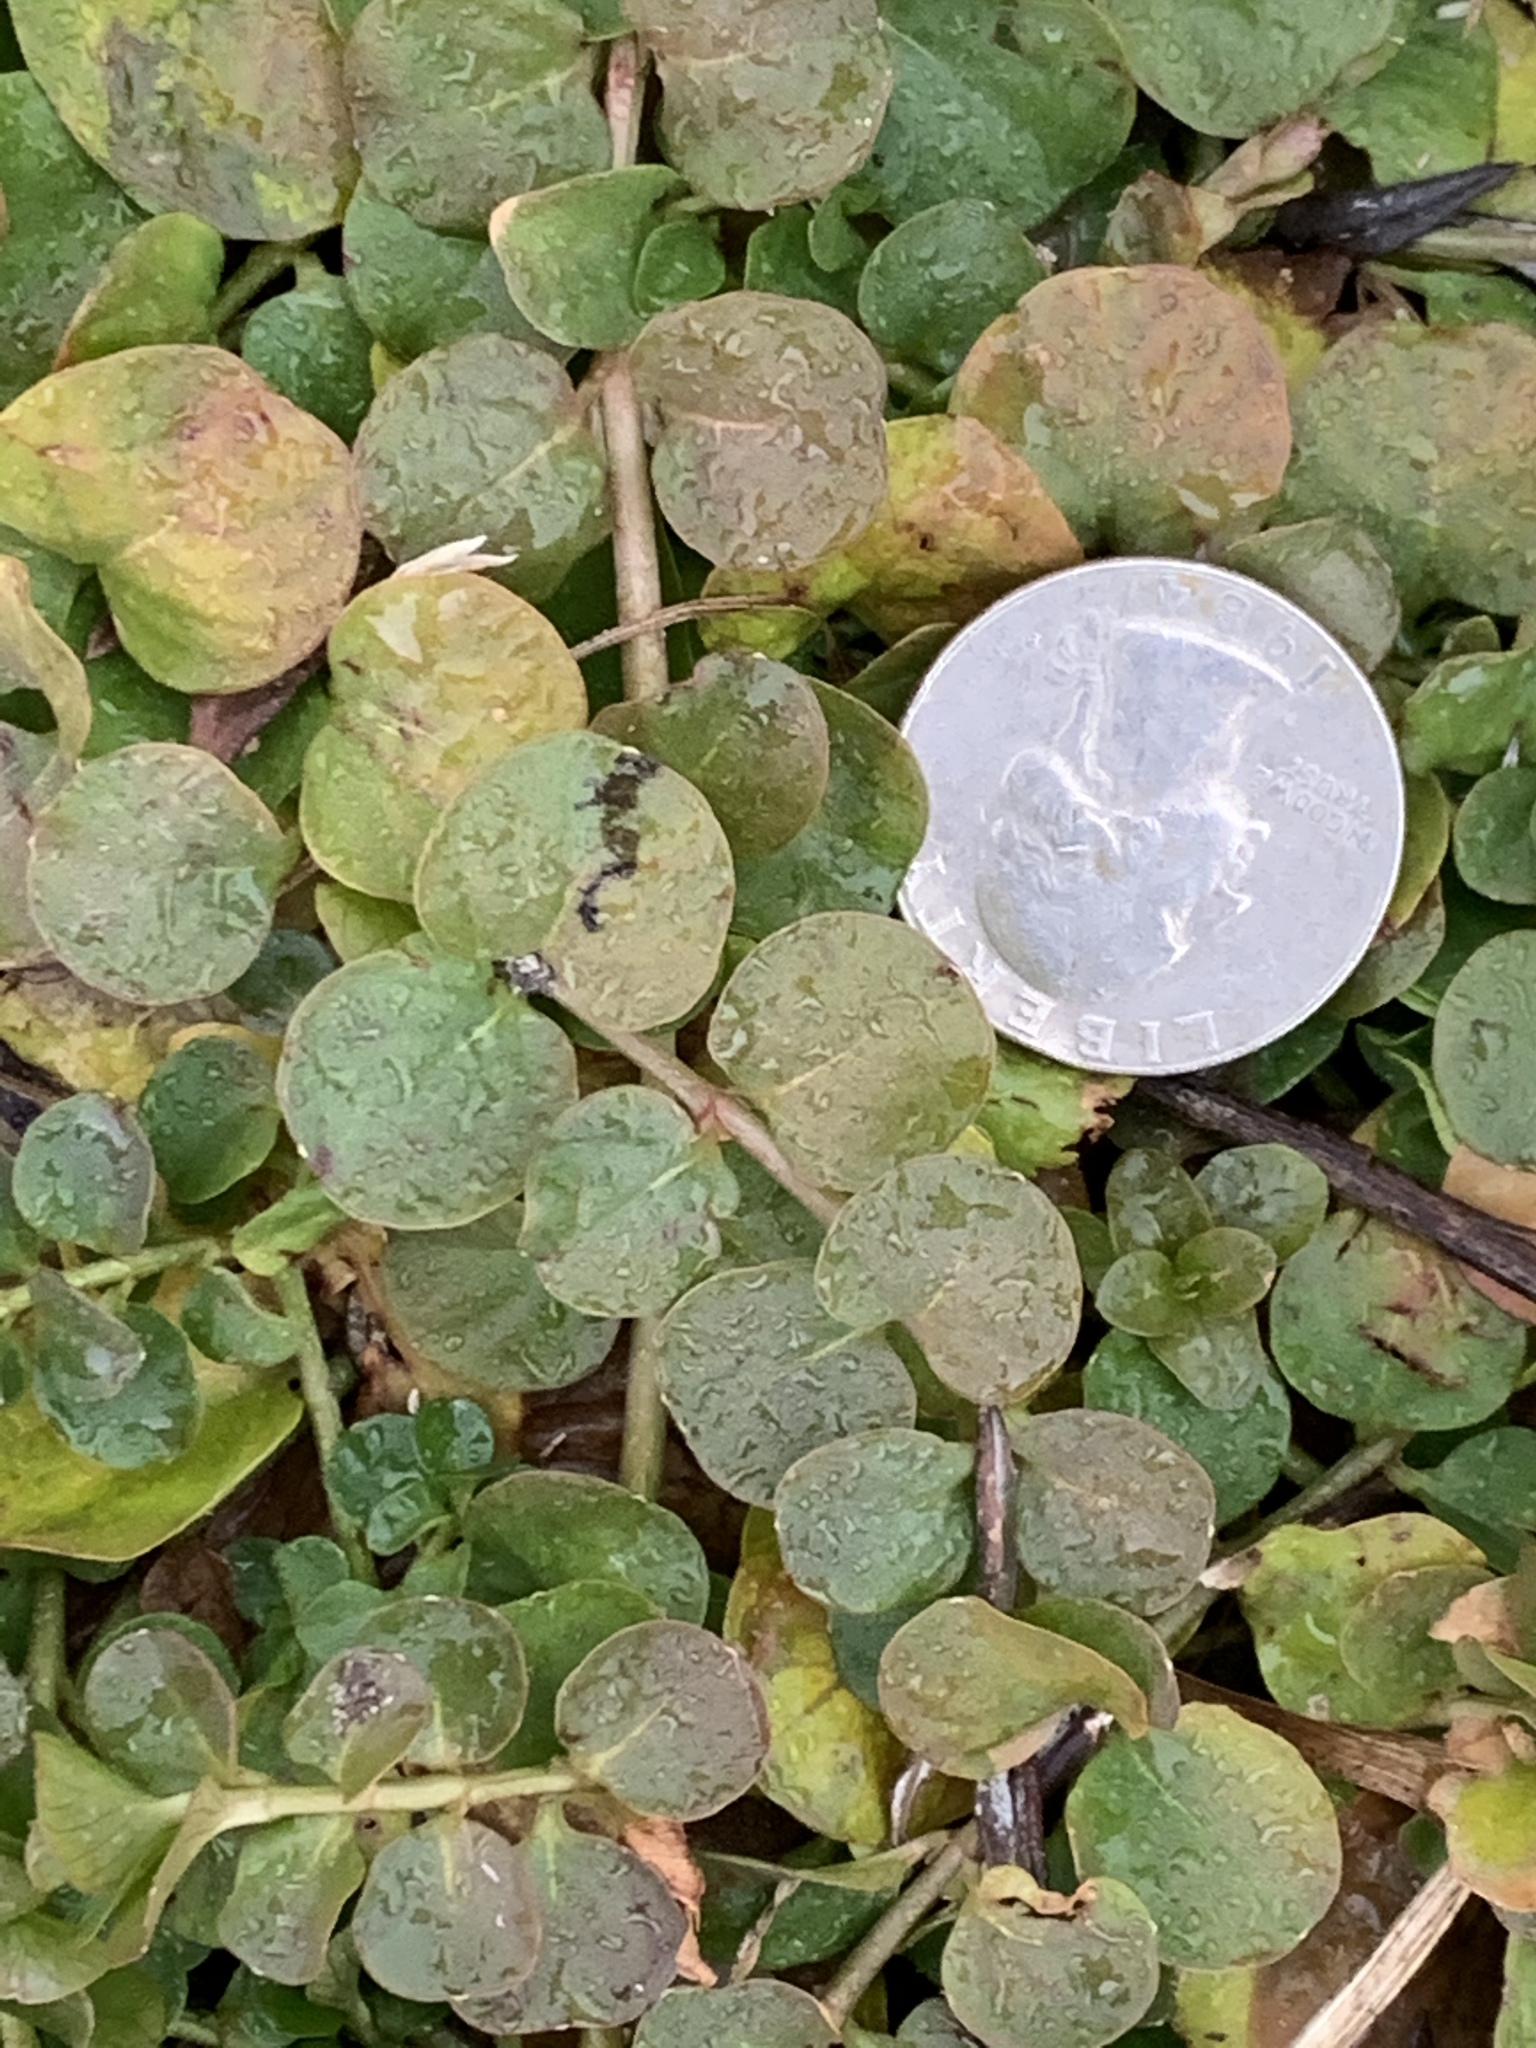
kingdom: Plantae
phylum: Tracheophyta
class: Magnoliopsida
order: Ericales
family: Primulaceae
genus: Lysimachia
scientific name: Lysimachia nummularia
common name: Moneywort
